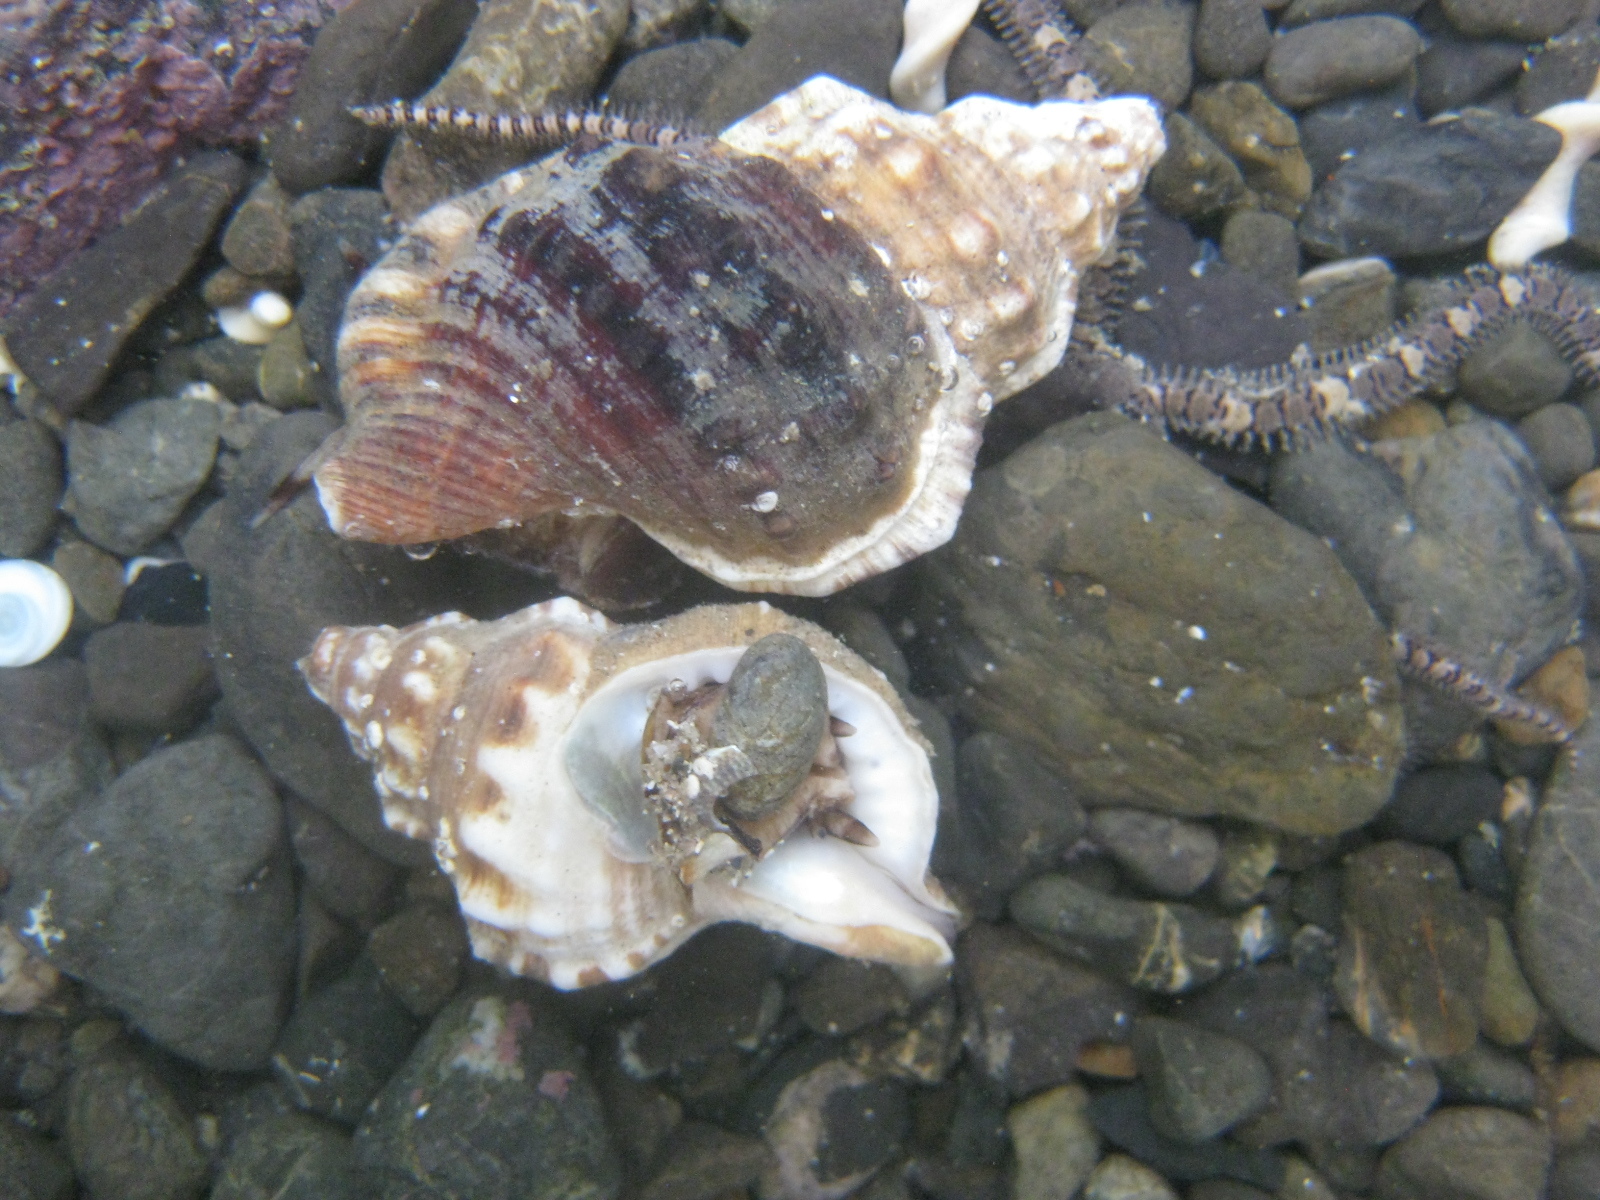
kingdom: Animalia
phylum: Mollusca
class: Gastropoda
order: Littorinimorpha
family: Ranellidae
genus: Ranella
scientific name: Ranella australasia
